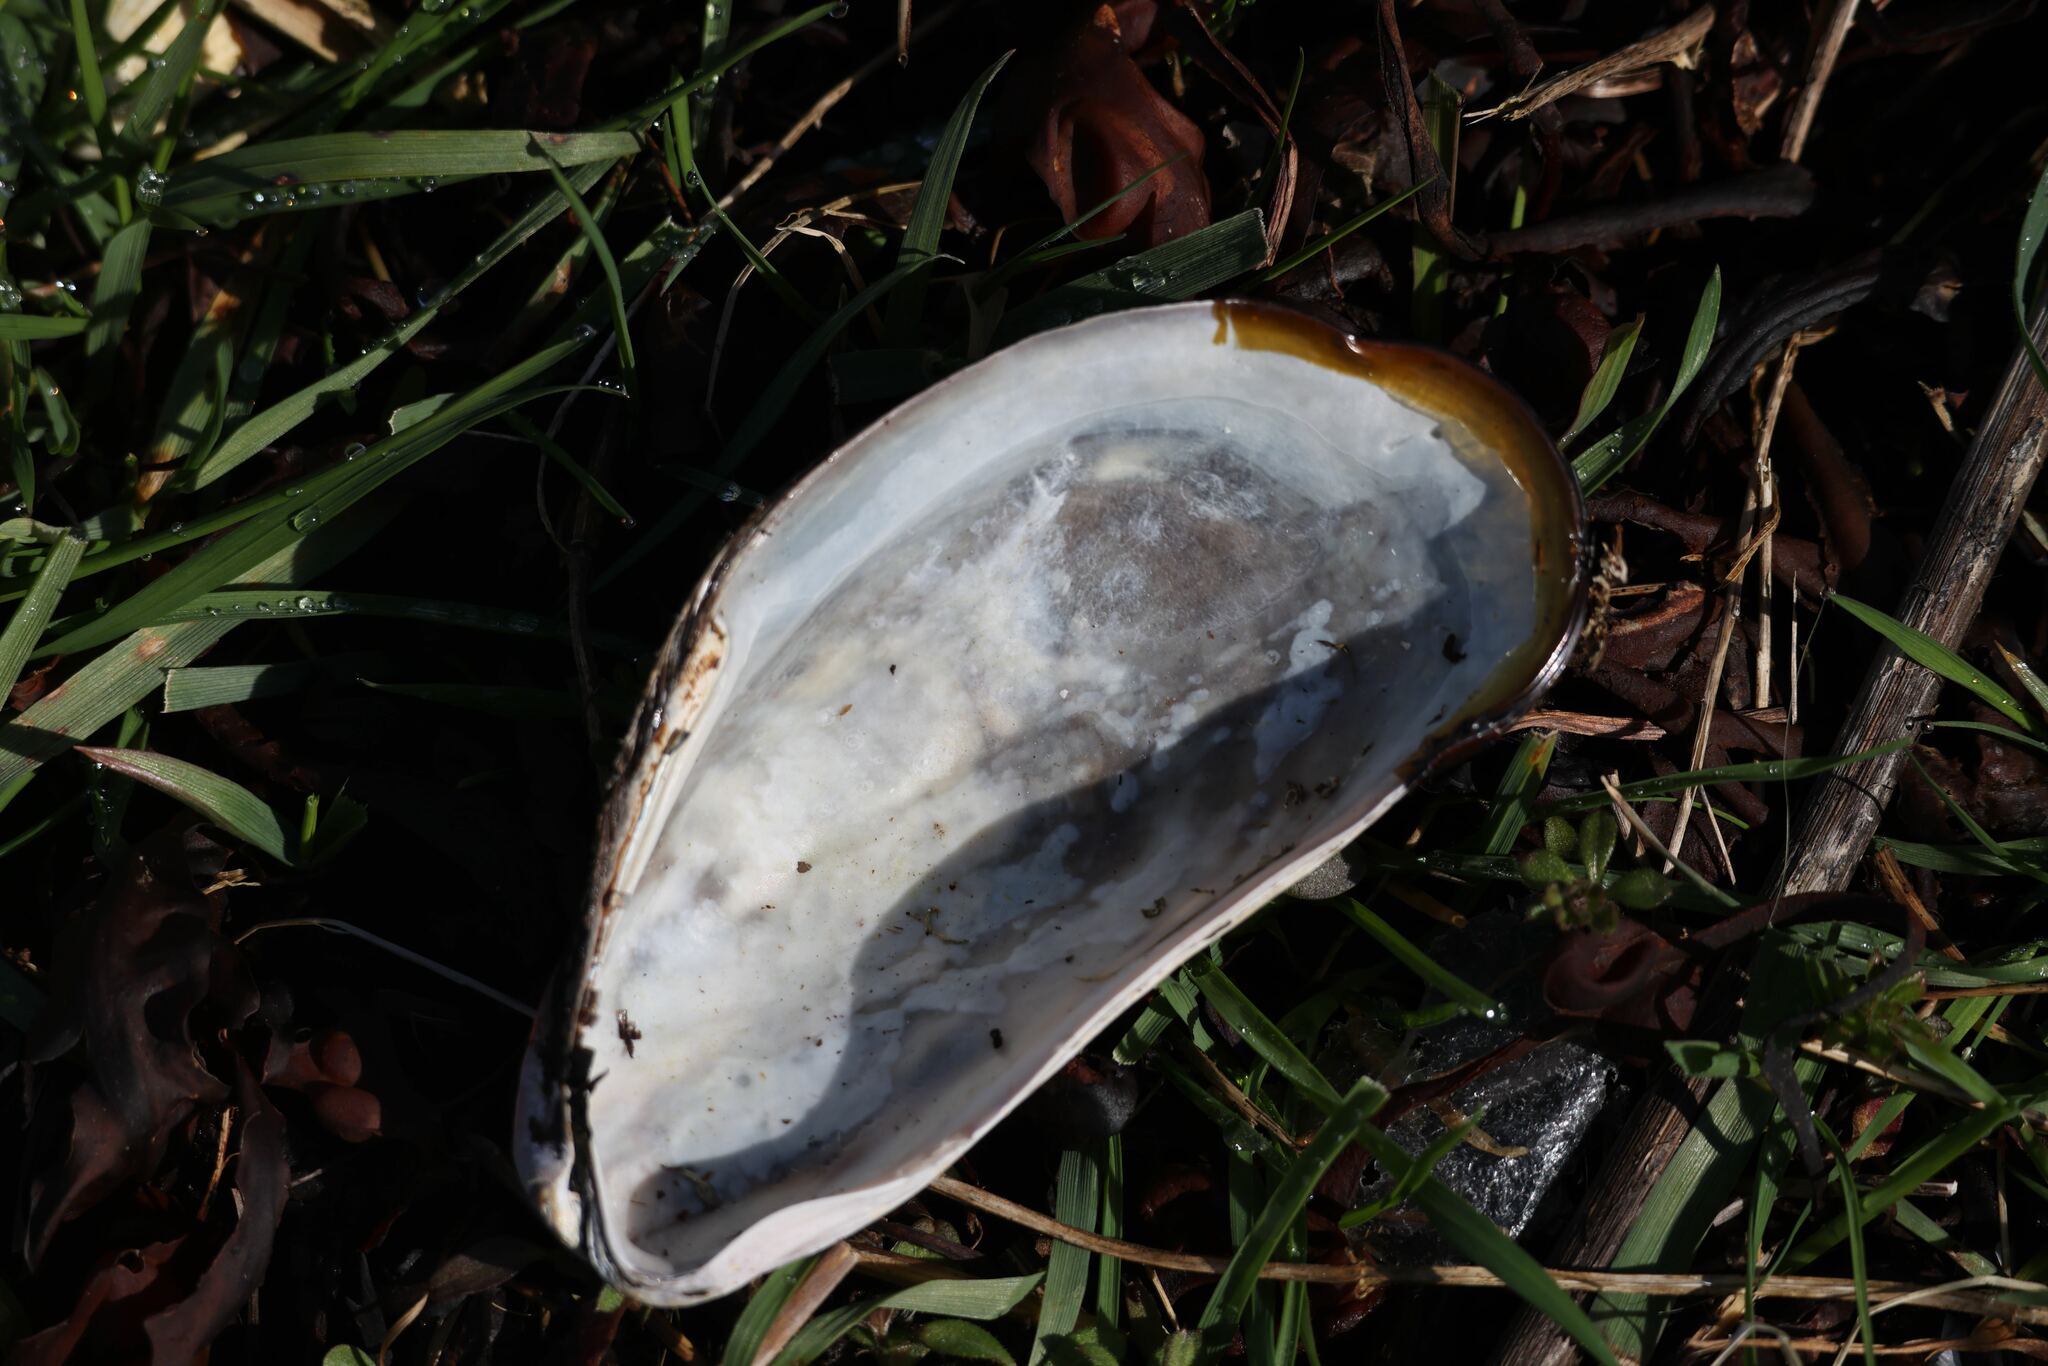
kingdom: Animalia
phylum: Mollusca
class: Bivalvia
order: Mytilida
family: Mytilidae
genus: Modiolus
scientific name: Modiolus modiolus
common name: Horse-mussel
